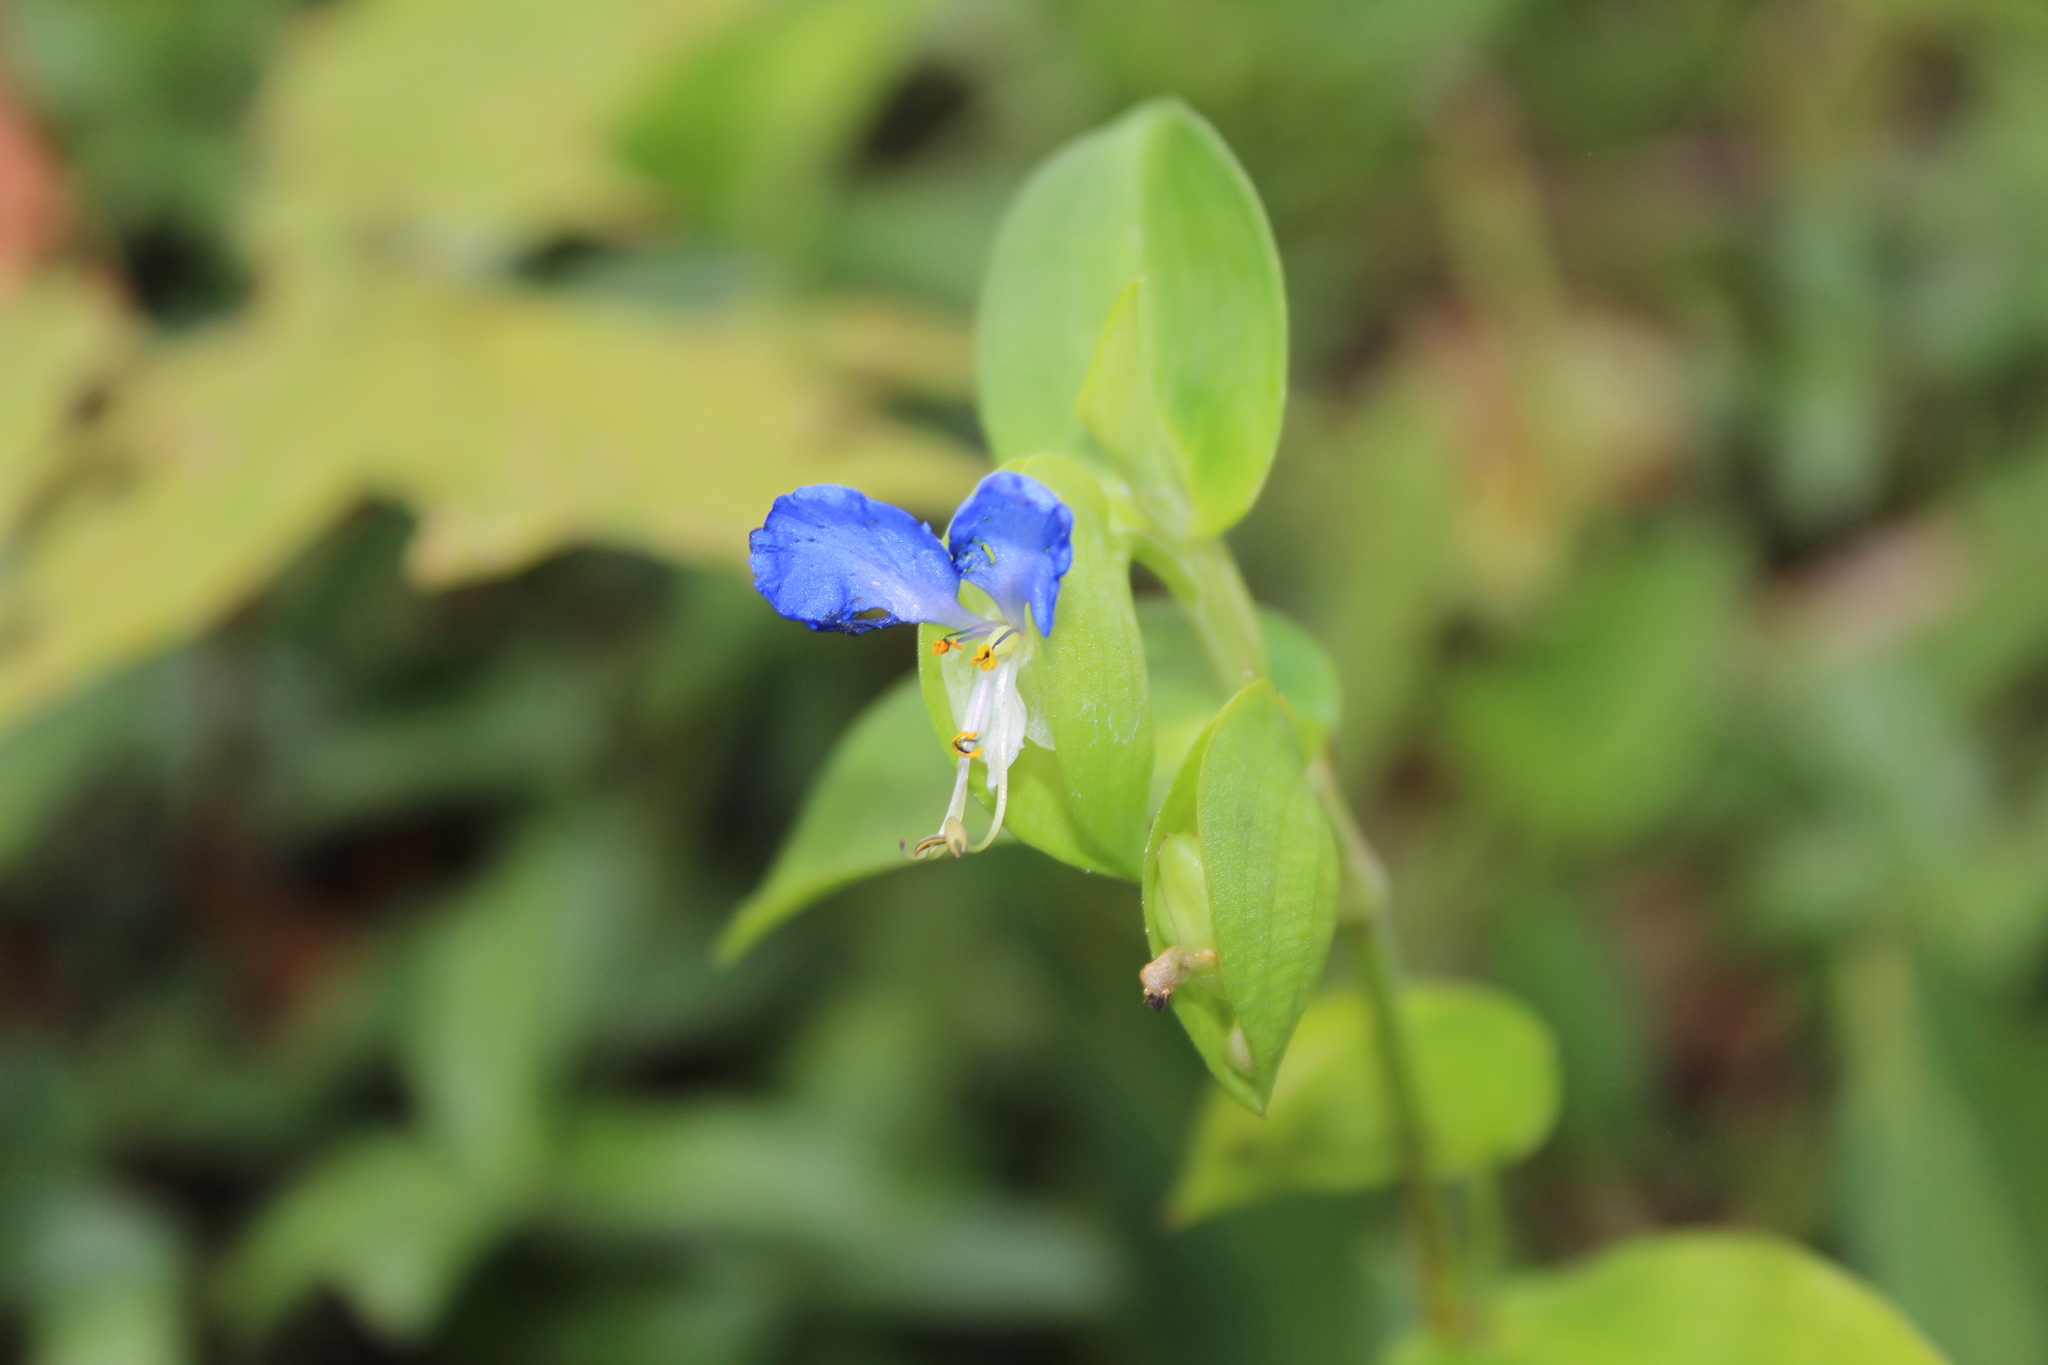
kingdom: Plantae
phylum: Tracheophyta
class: Liliopsida
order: Commelinales
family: Commelinaceae
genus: Commelina
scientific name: Commelina communis
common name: Asiatic dayflower
